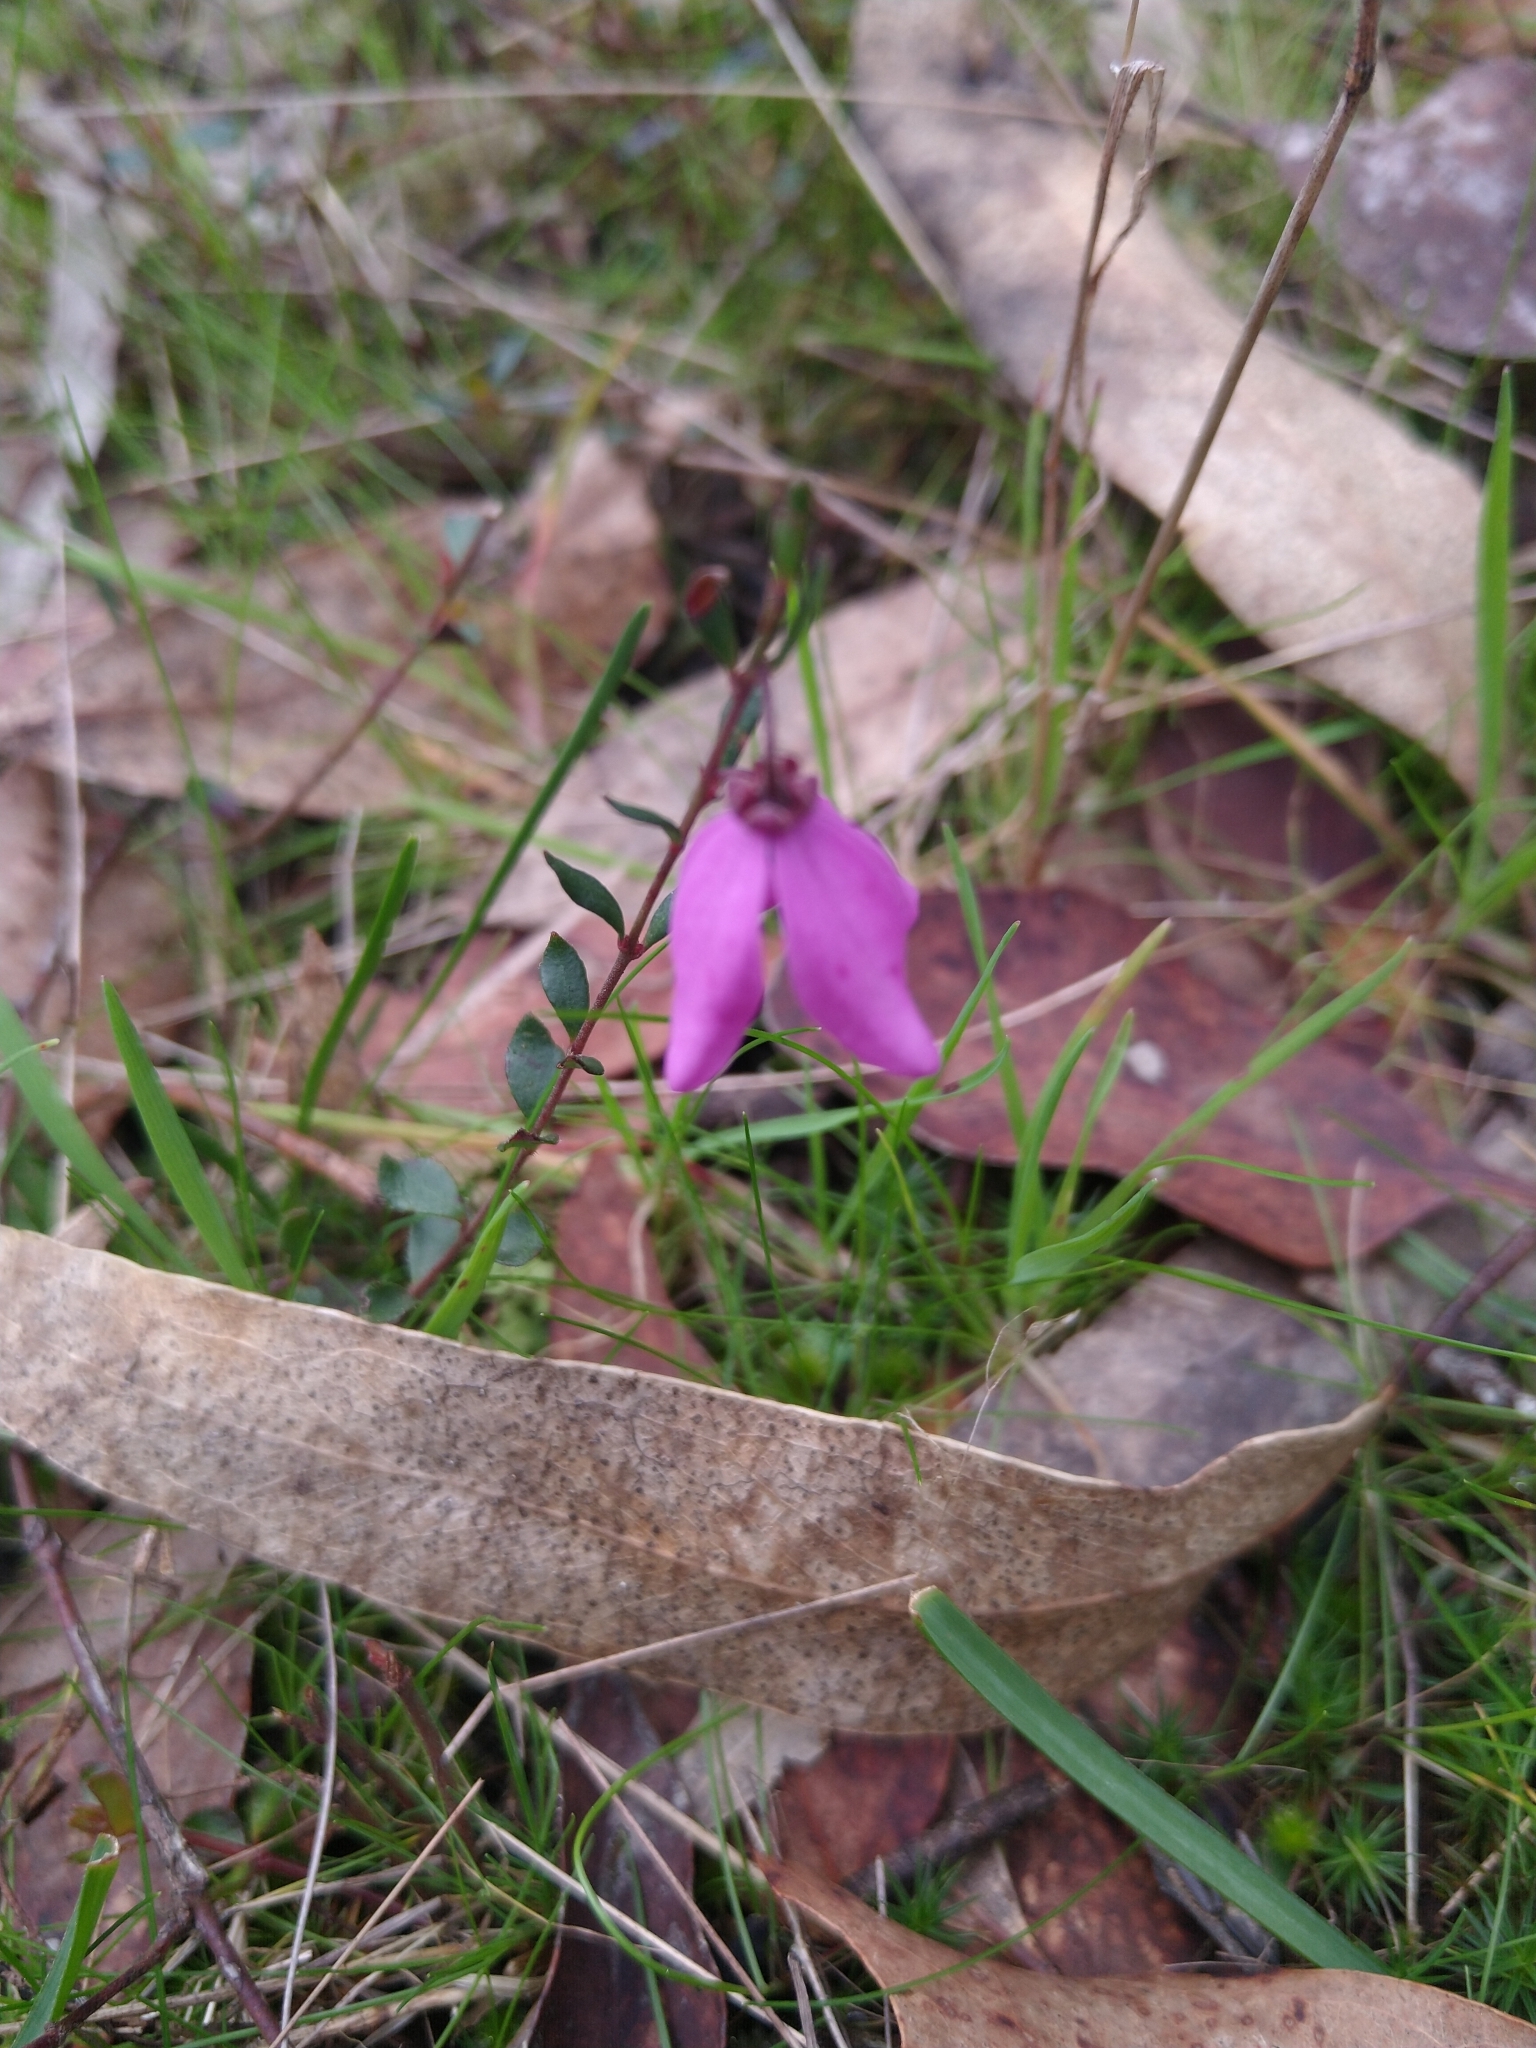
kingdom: Plantae
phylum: Tracheophyta
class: Magnoliopsida
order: Oxalidales
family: Elaeocarpaceae
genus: Tetratheca
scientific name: Tetratheca ciliata
